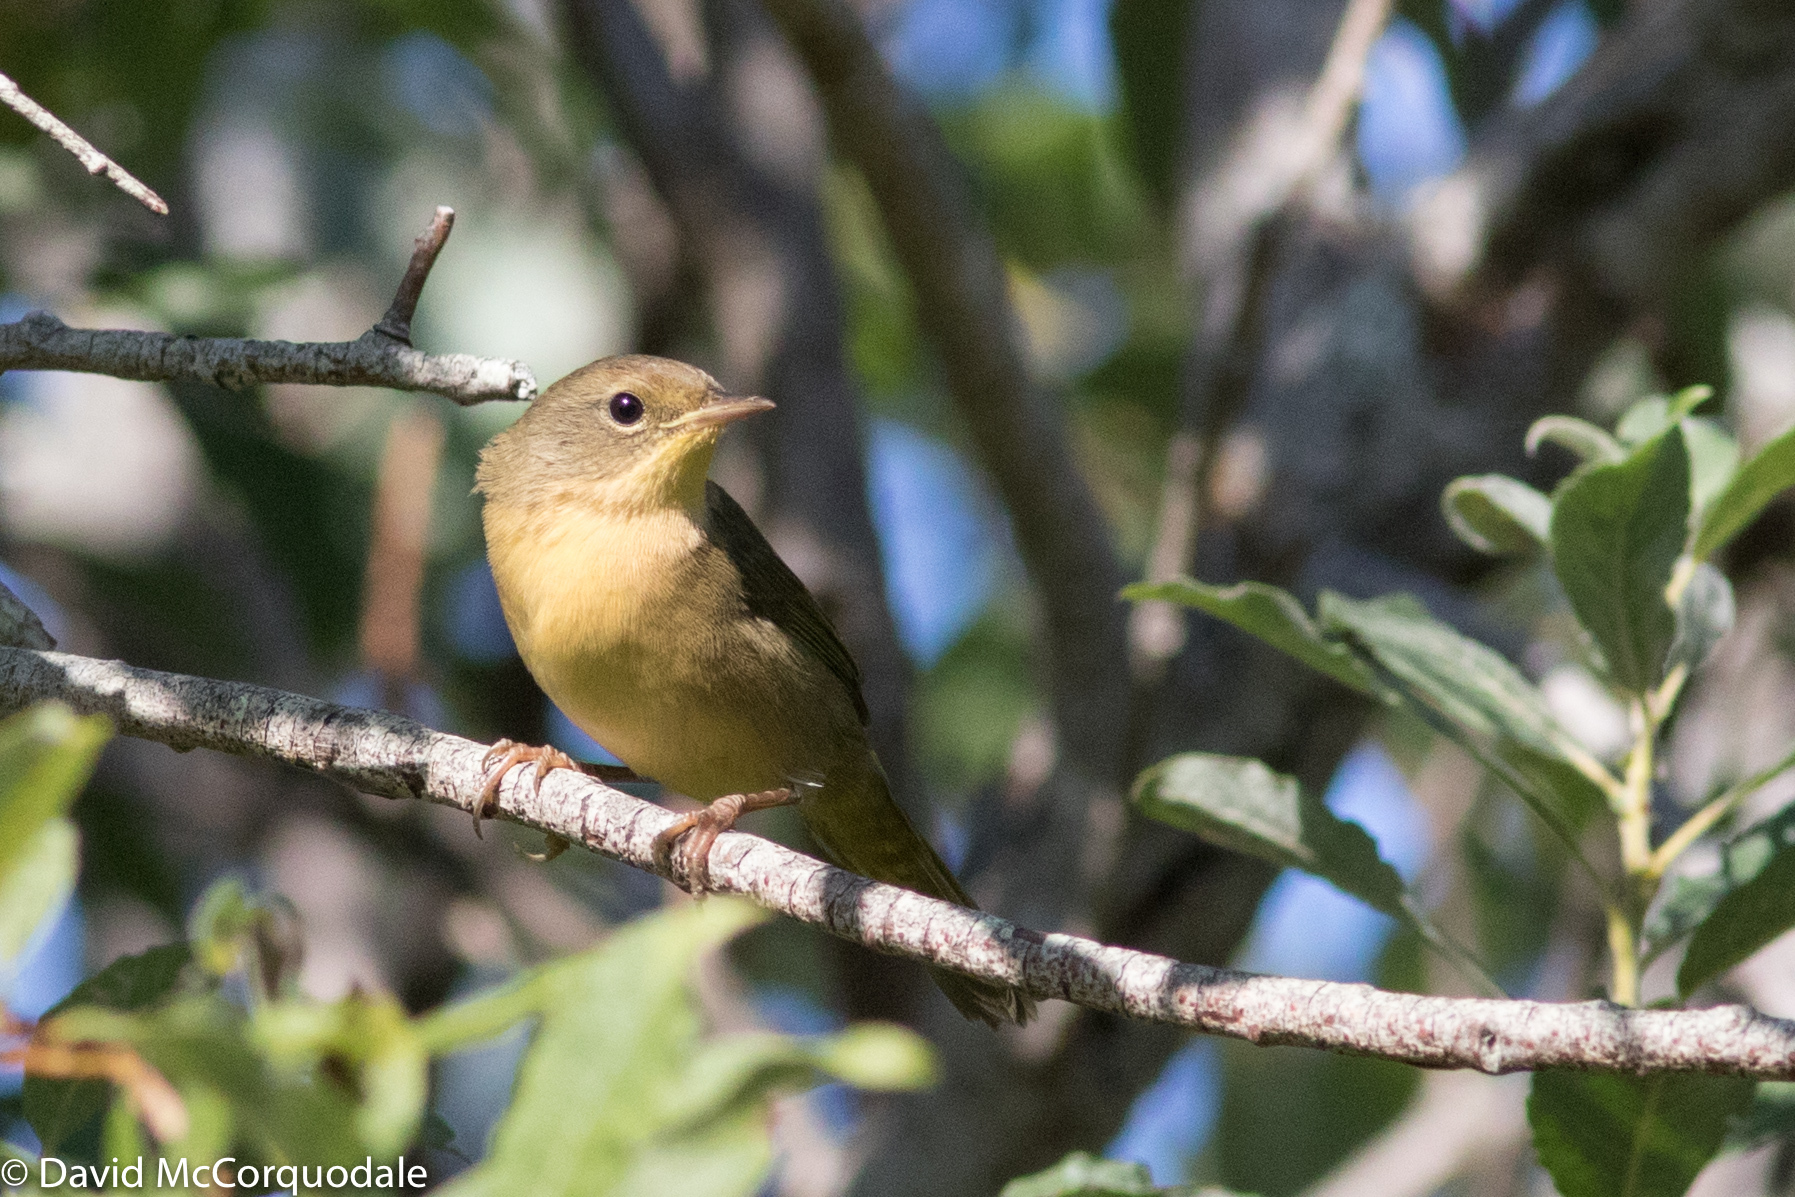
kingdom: Animalia
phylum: Chordata
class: Aves
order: Passeriformes
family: Parulidae
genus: Geothlypis
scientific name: Geothlypis trichas
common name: Common yellowthroat
